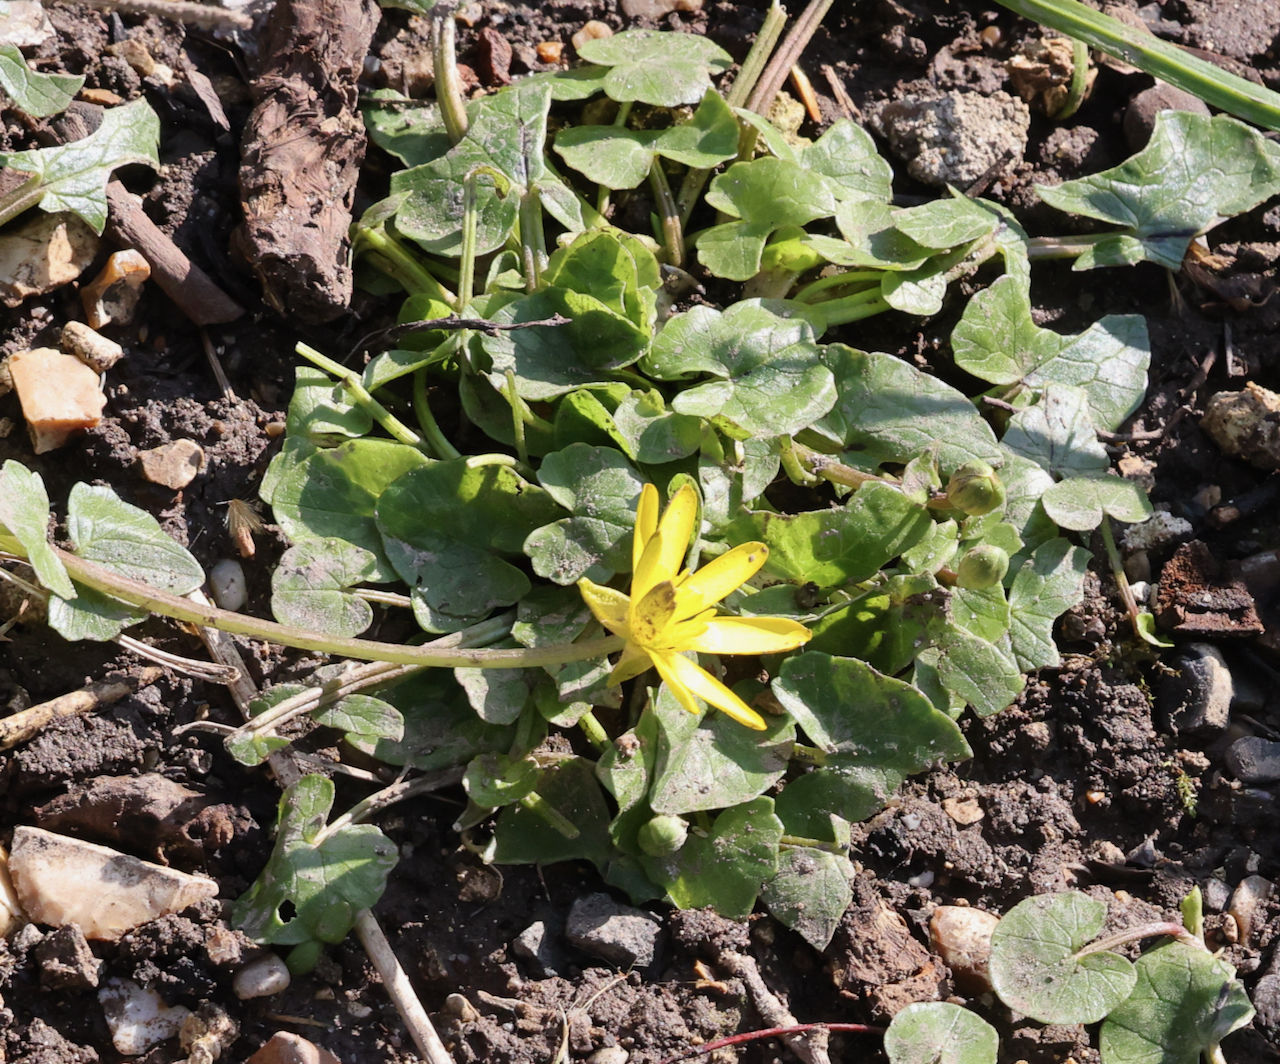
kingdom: Plantae
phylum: Tracheophyta
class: Magnoliopsida
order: Ranunculales
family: Ranunculaceae
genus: Ficaria
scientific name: Ficaria verna
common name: Lesser celandine
